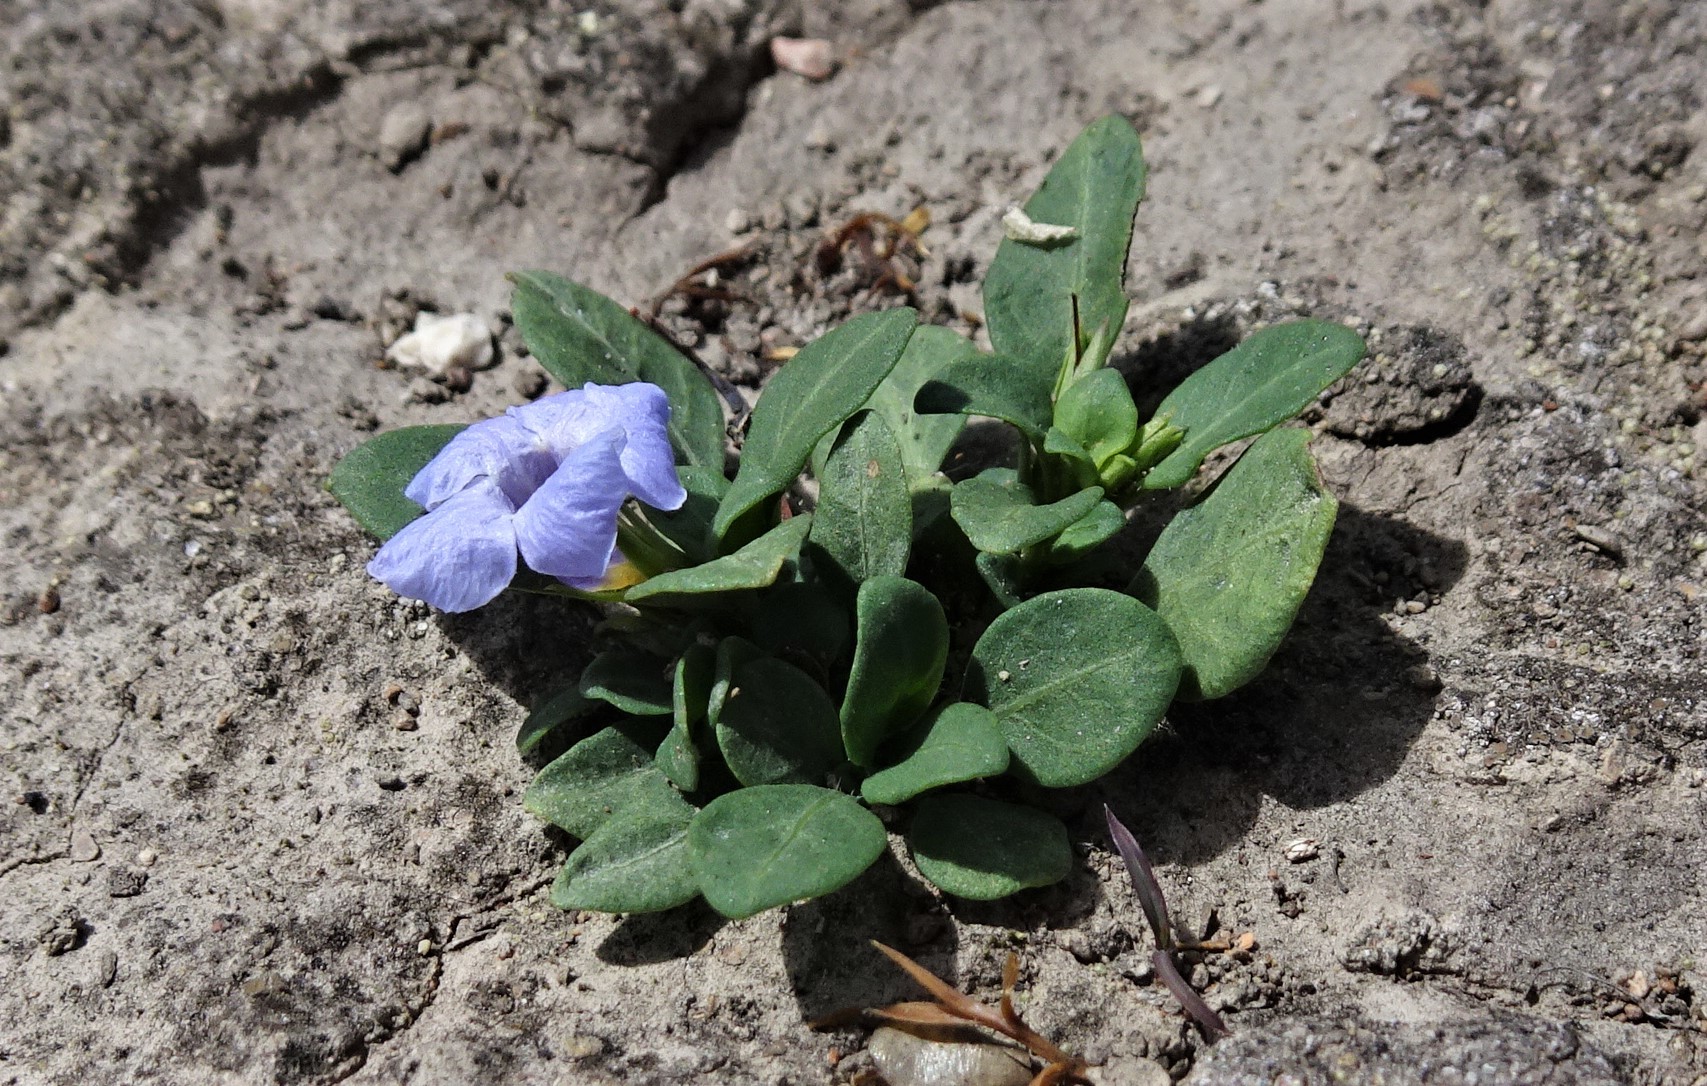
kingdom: Plantae
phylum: Tracheophyta
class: Magnoliopsida
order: Lamiales
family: Acanthaceae
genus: Brunoniella
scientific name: Brunoniella australis
